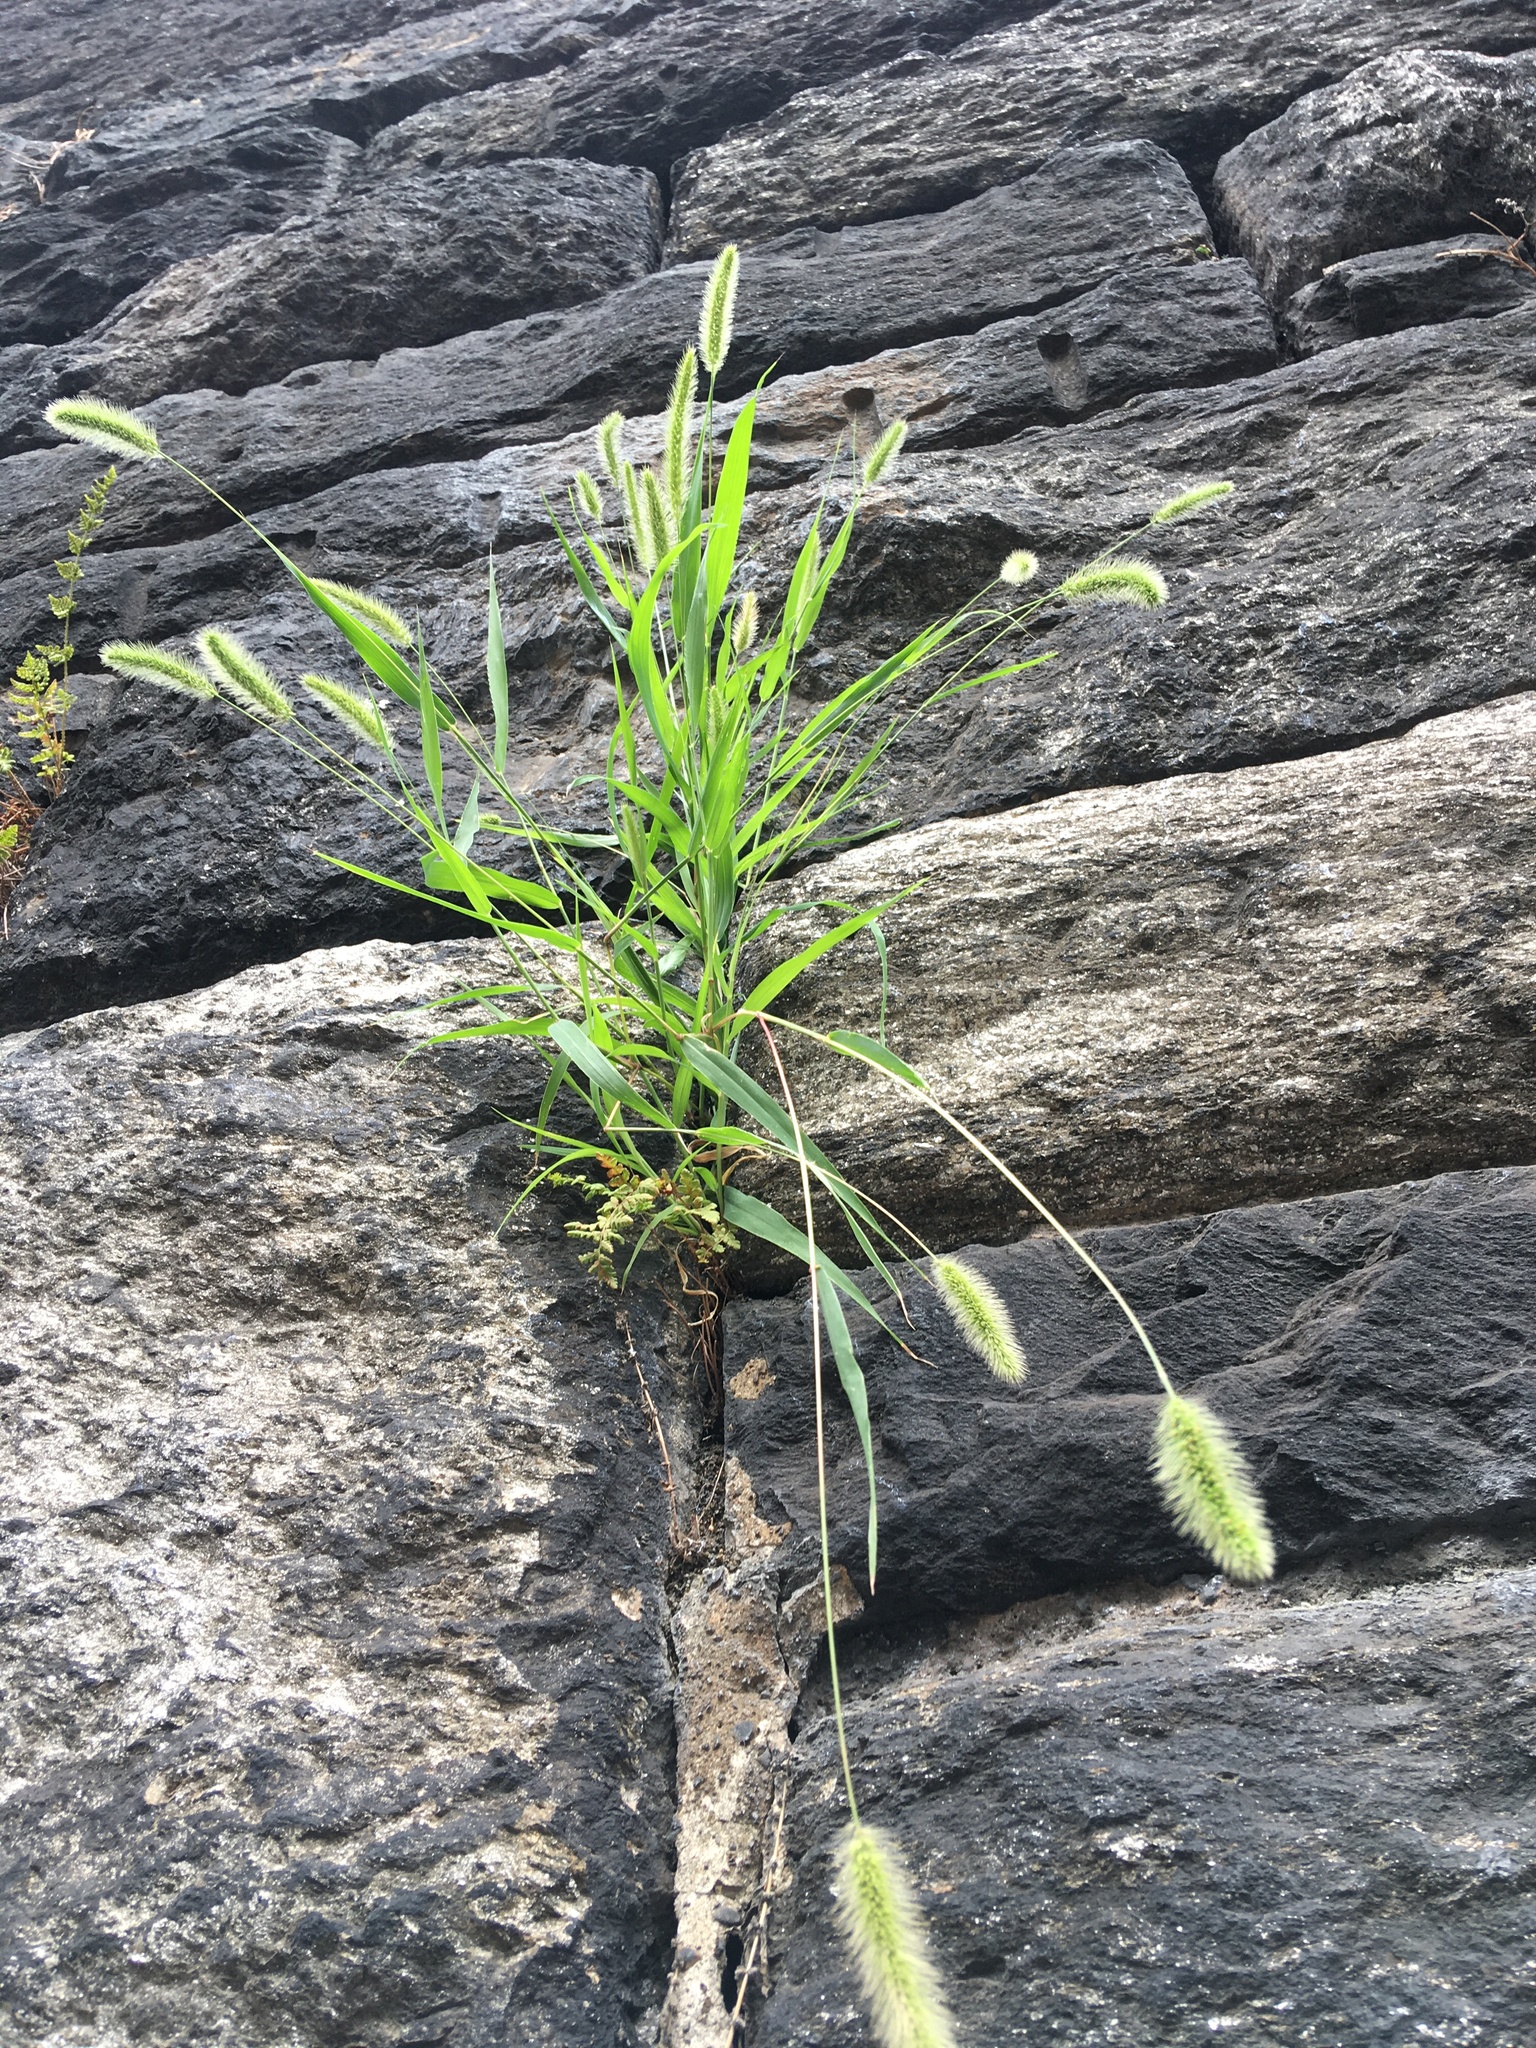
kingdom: Plantae
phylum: Tracheophyta
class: Liliopsida
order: Poales
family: Poaceae
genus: Setaria
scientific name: Setaria viridis
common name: Green bristlegrass
